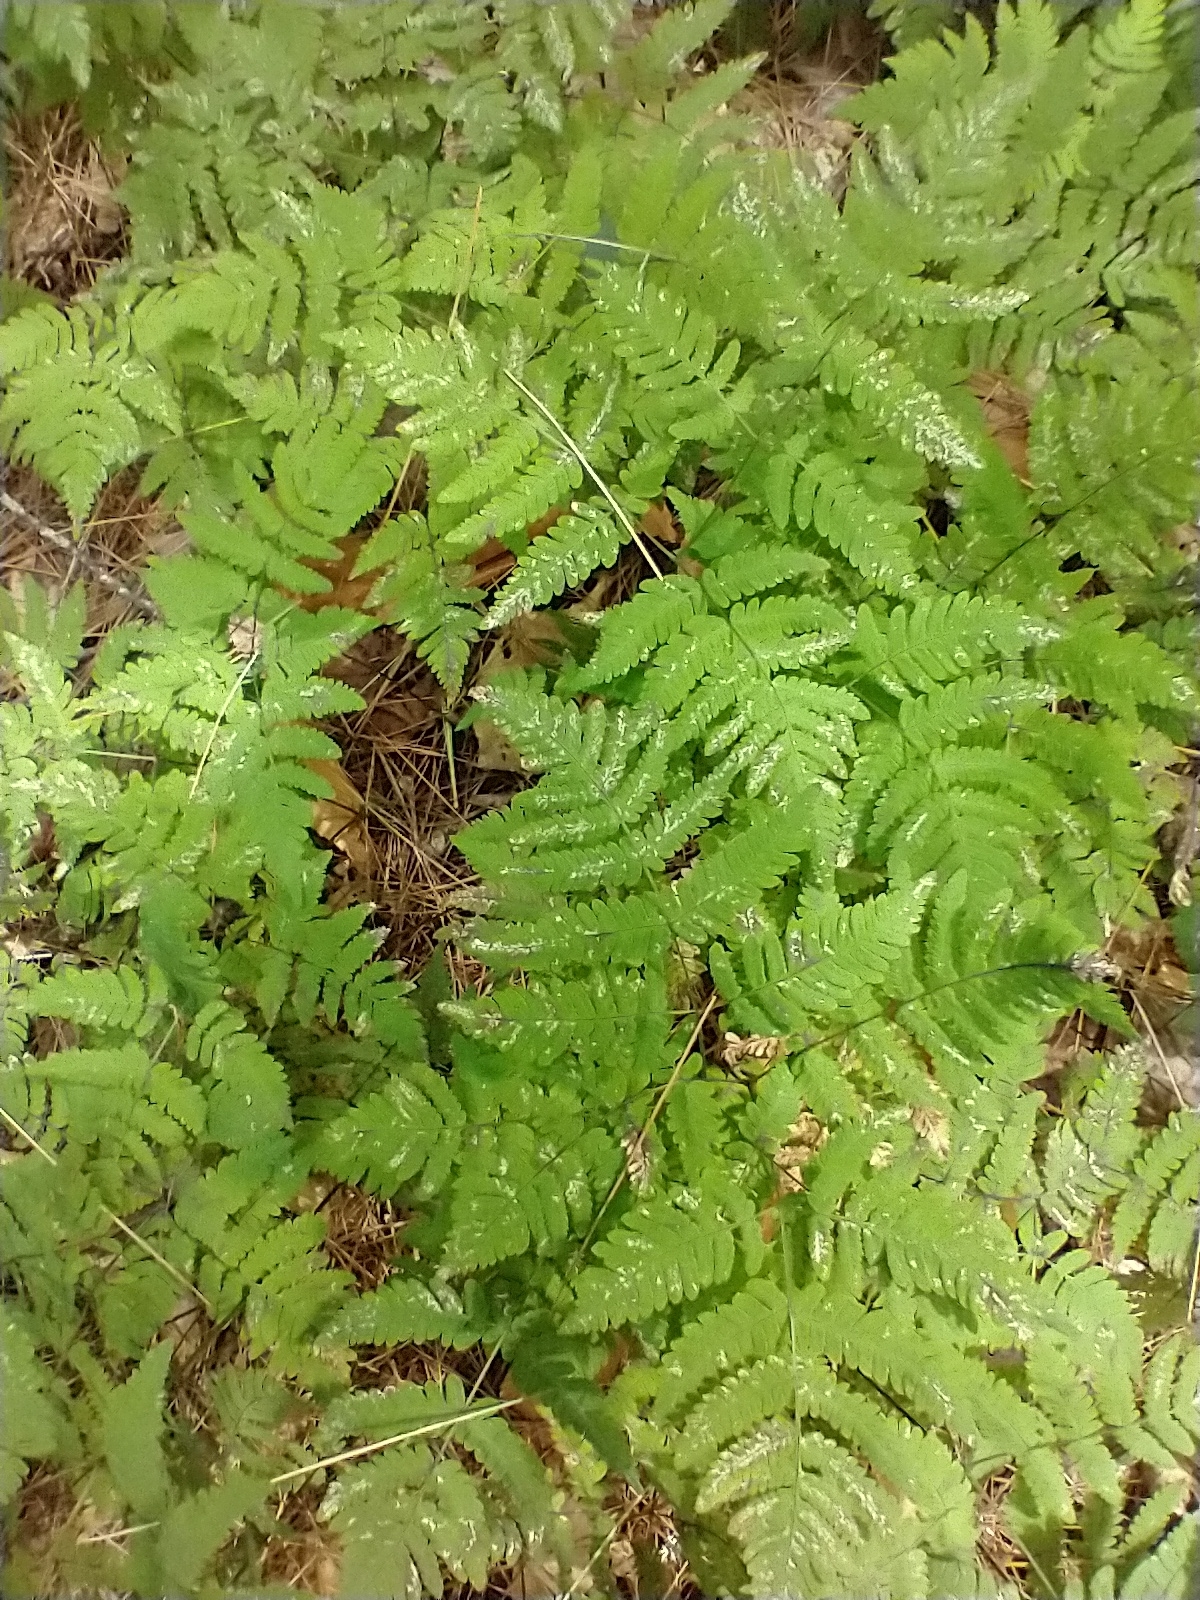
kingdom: Plantae
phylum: Tracheophyta
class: Polypodiopsida
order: Polypodiales
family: Cystopteridaceae
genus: Gymnocarpium
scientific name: Gymnocarpium dryopteris
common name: Oak fern
